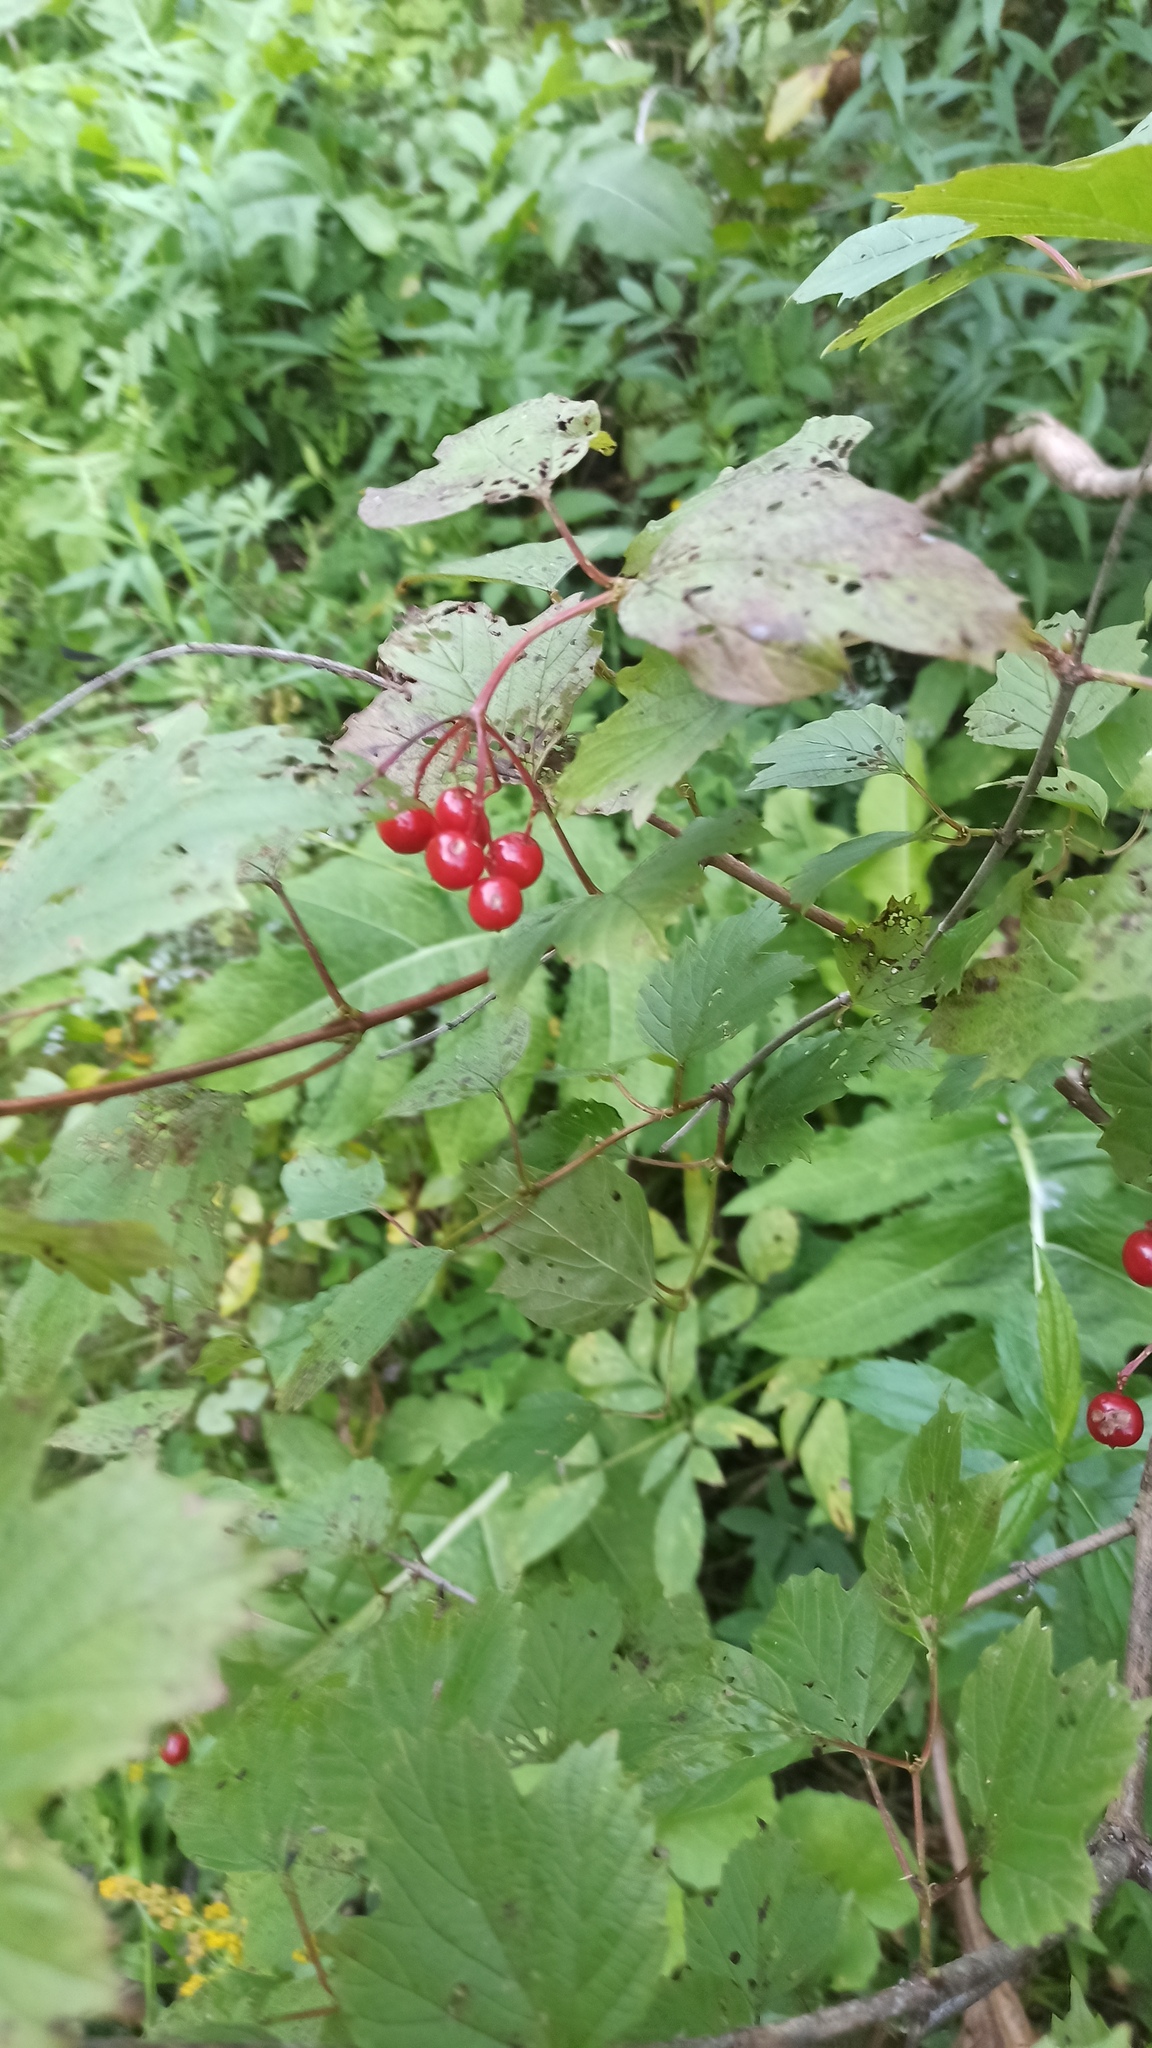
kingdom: Plantae
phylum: Tracheophyta
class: Magnoliopsida
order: Dipsacales
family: Viburnaceae
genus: Viburnum
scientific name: Viburnum opulus
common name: Guelder-rose
